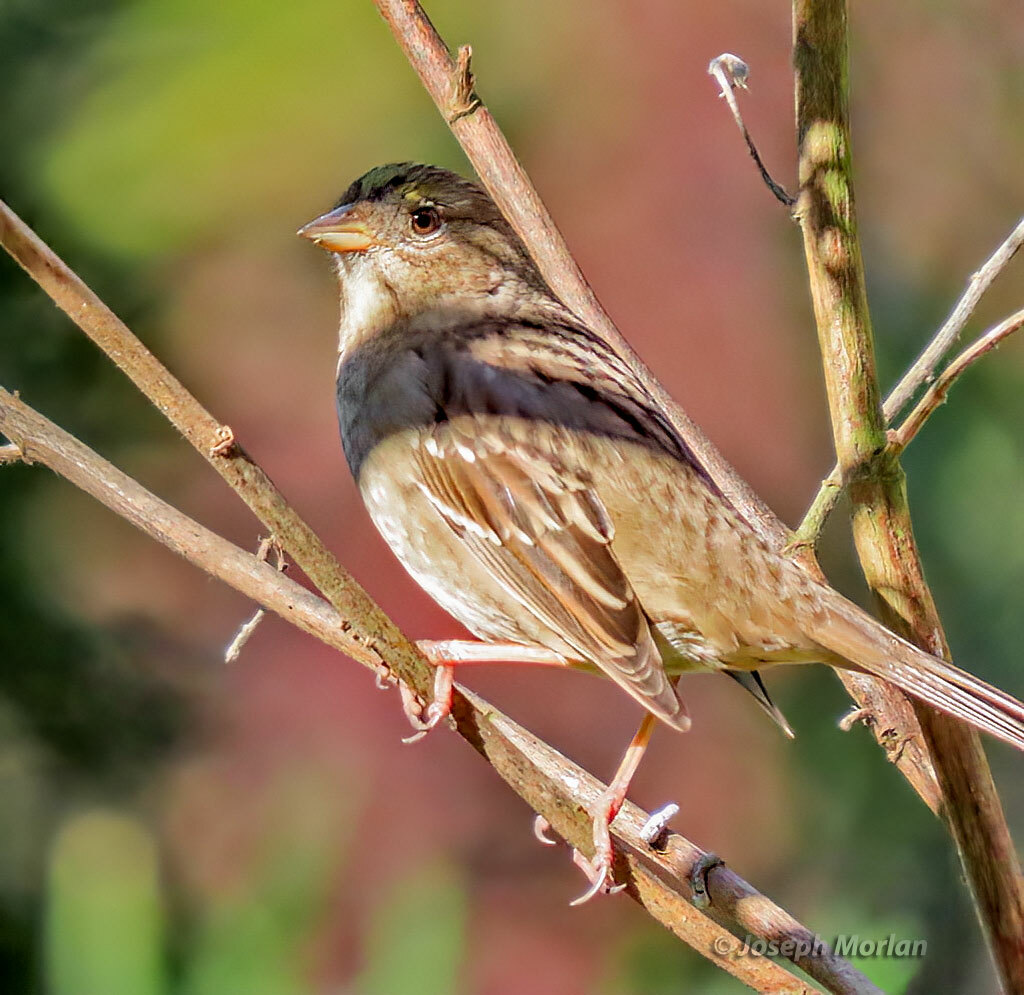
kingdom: Animalia
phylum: Chordata
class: Aves
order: Passeriformes
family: Passerellidae
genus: Zonotrichia
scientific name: Zonotrichia atricapilla
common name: Golden-crowned sparrow
